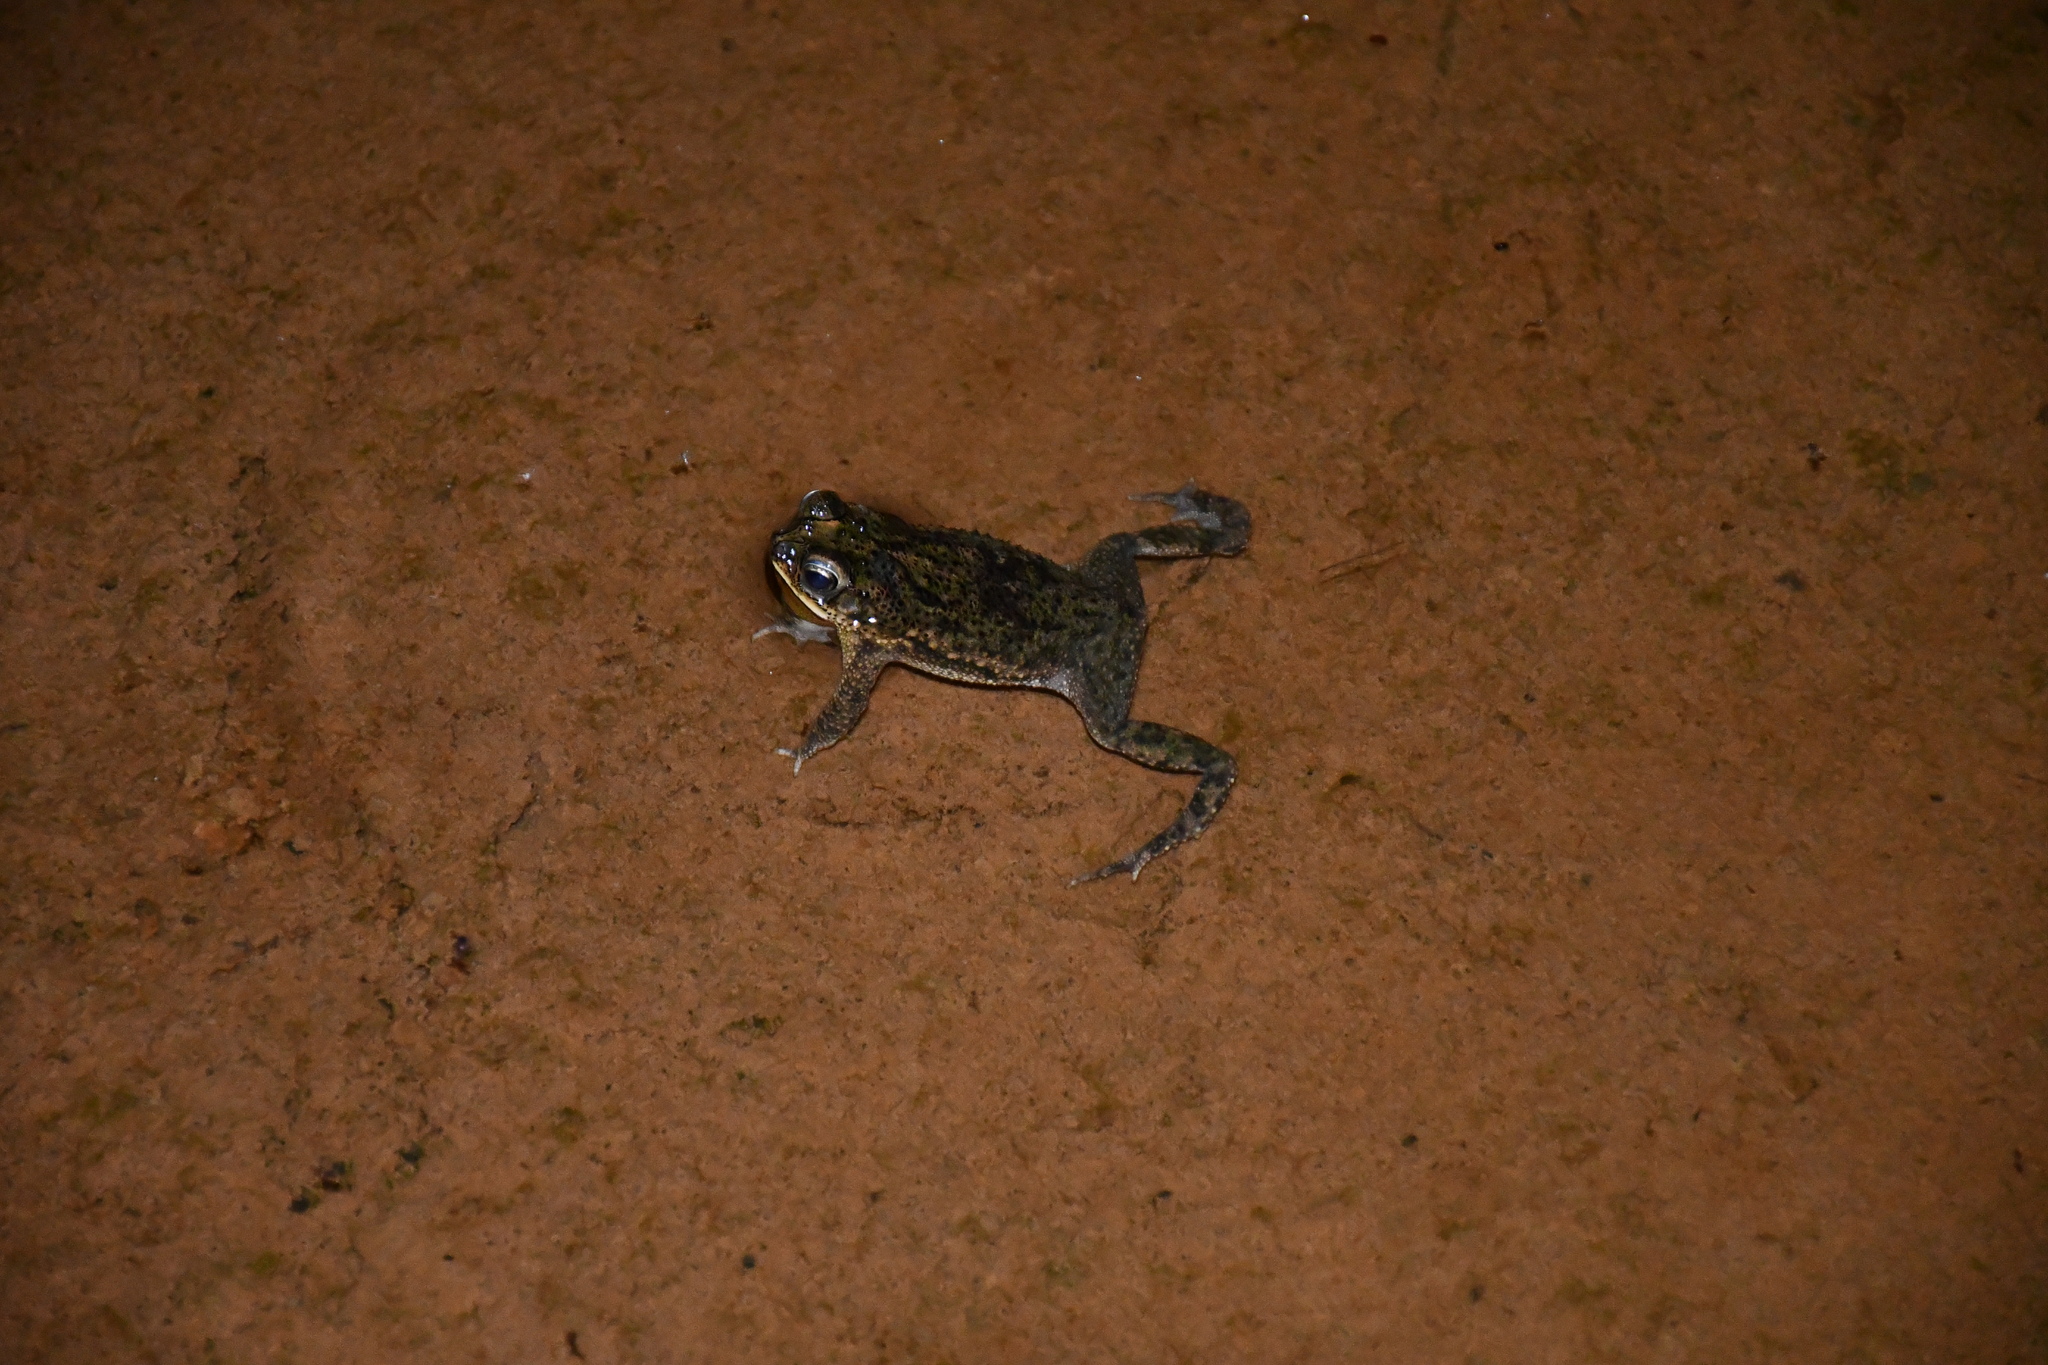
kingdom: Animalia
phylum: Chordata
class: Amphibia
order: Anura
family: Bufonidae
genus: Rhinella
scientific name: Rhinella major
